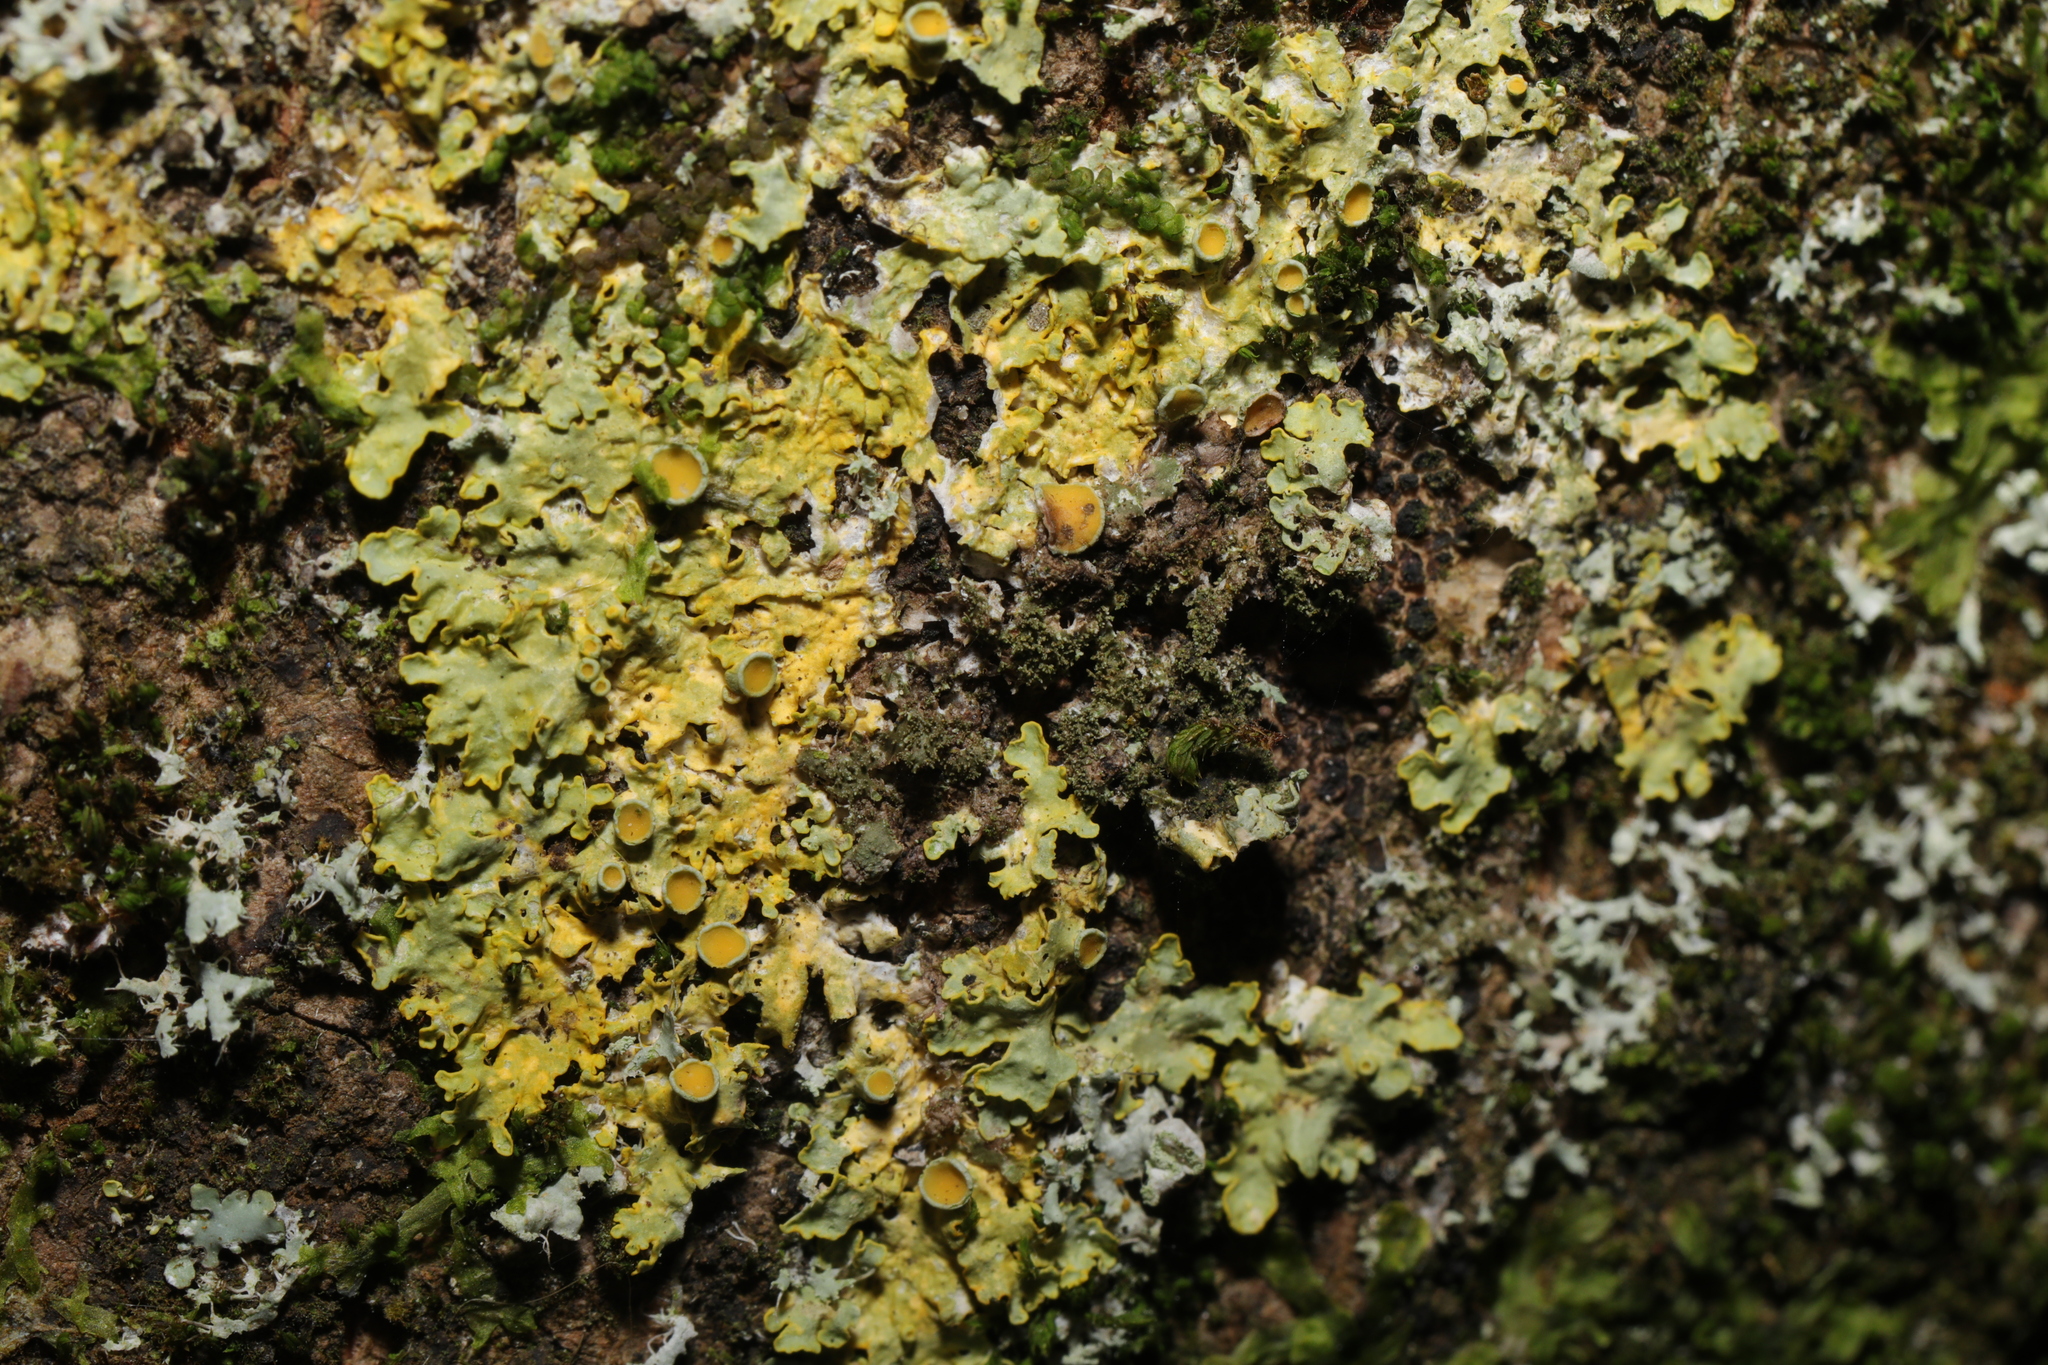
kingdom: Fungi
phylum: Ascomycota
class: Lecanoromycetes
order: Teloschistales
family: Teloschistaceae
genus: Xanthoria
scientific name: Xanthoria parietina
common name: Common orange lichen
